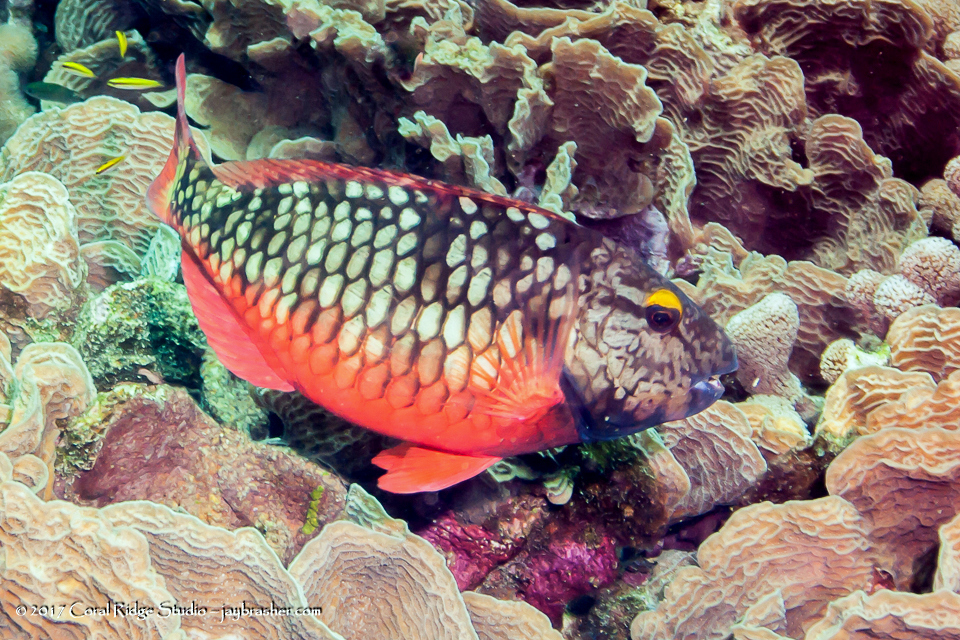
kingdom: Animalia
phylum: Chordata
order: Perciformes
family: Scaridae
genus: Sparisoma
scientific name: Sparisoma viride
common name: Stoplight parrotfish
